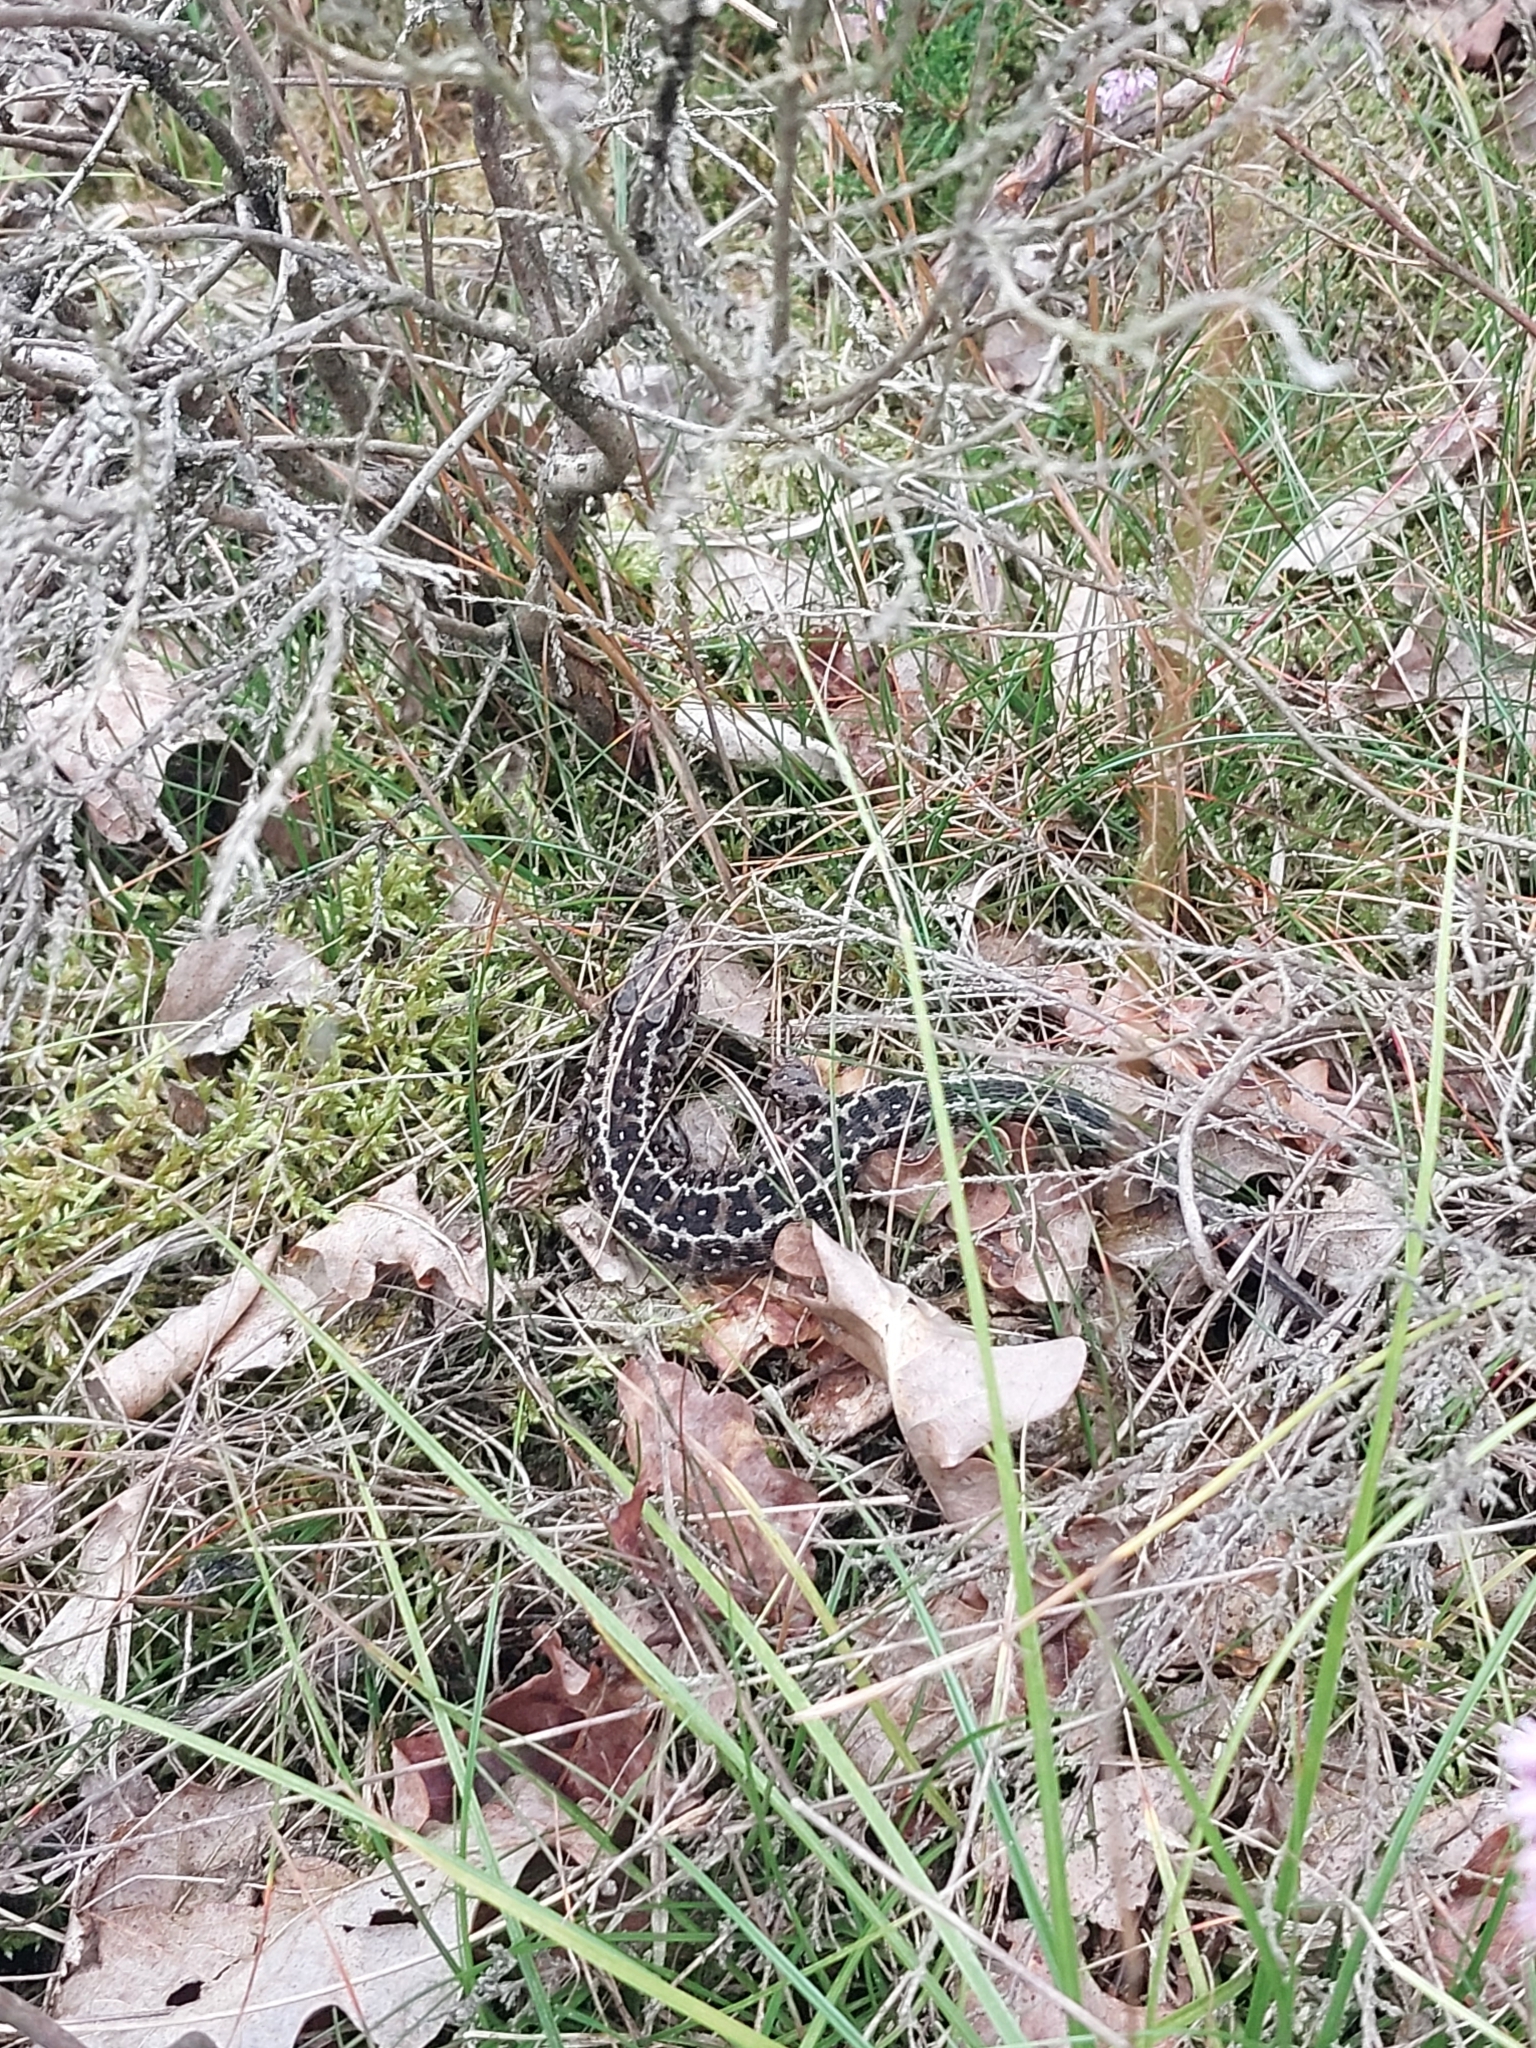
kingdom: Animalia
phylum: Chordata
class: Squamata
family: Lacertidae
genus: Lacerta
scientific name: Lacerta agilis
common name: Sand lizard
